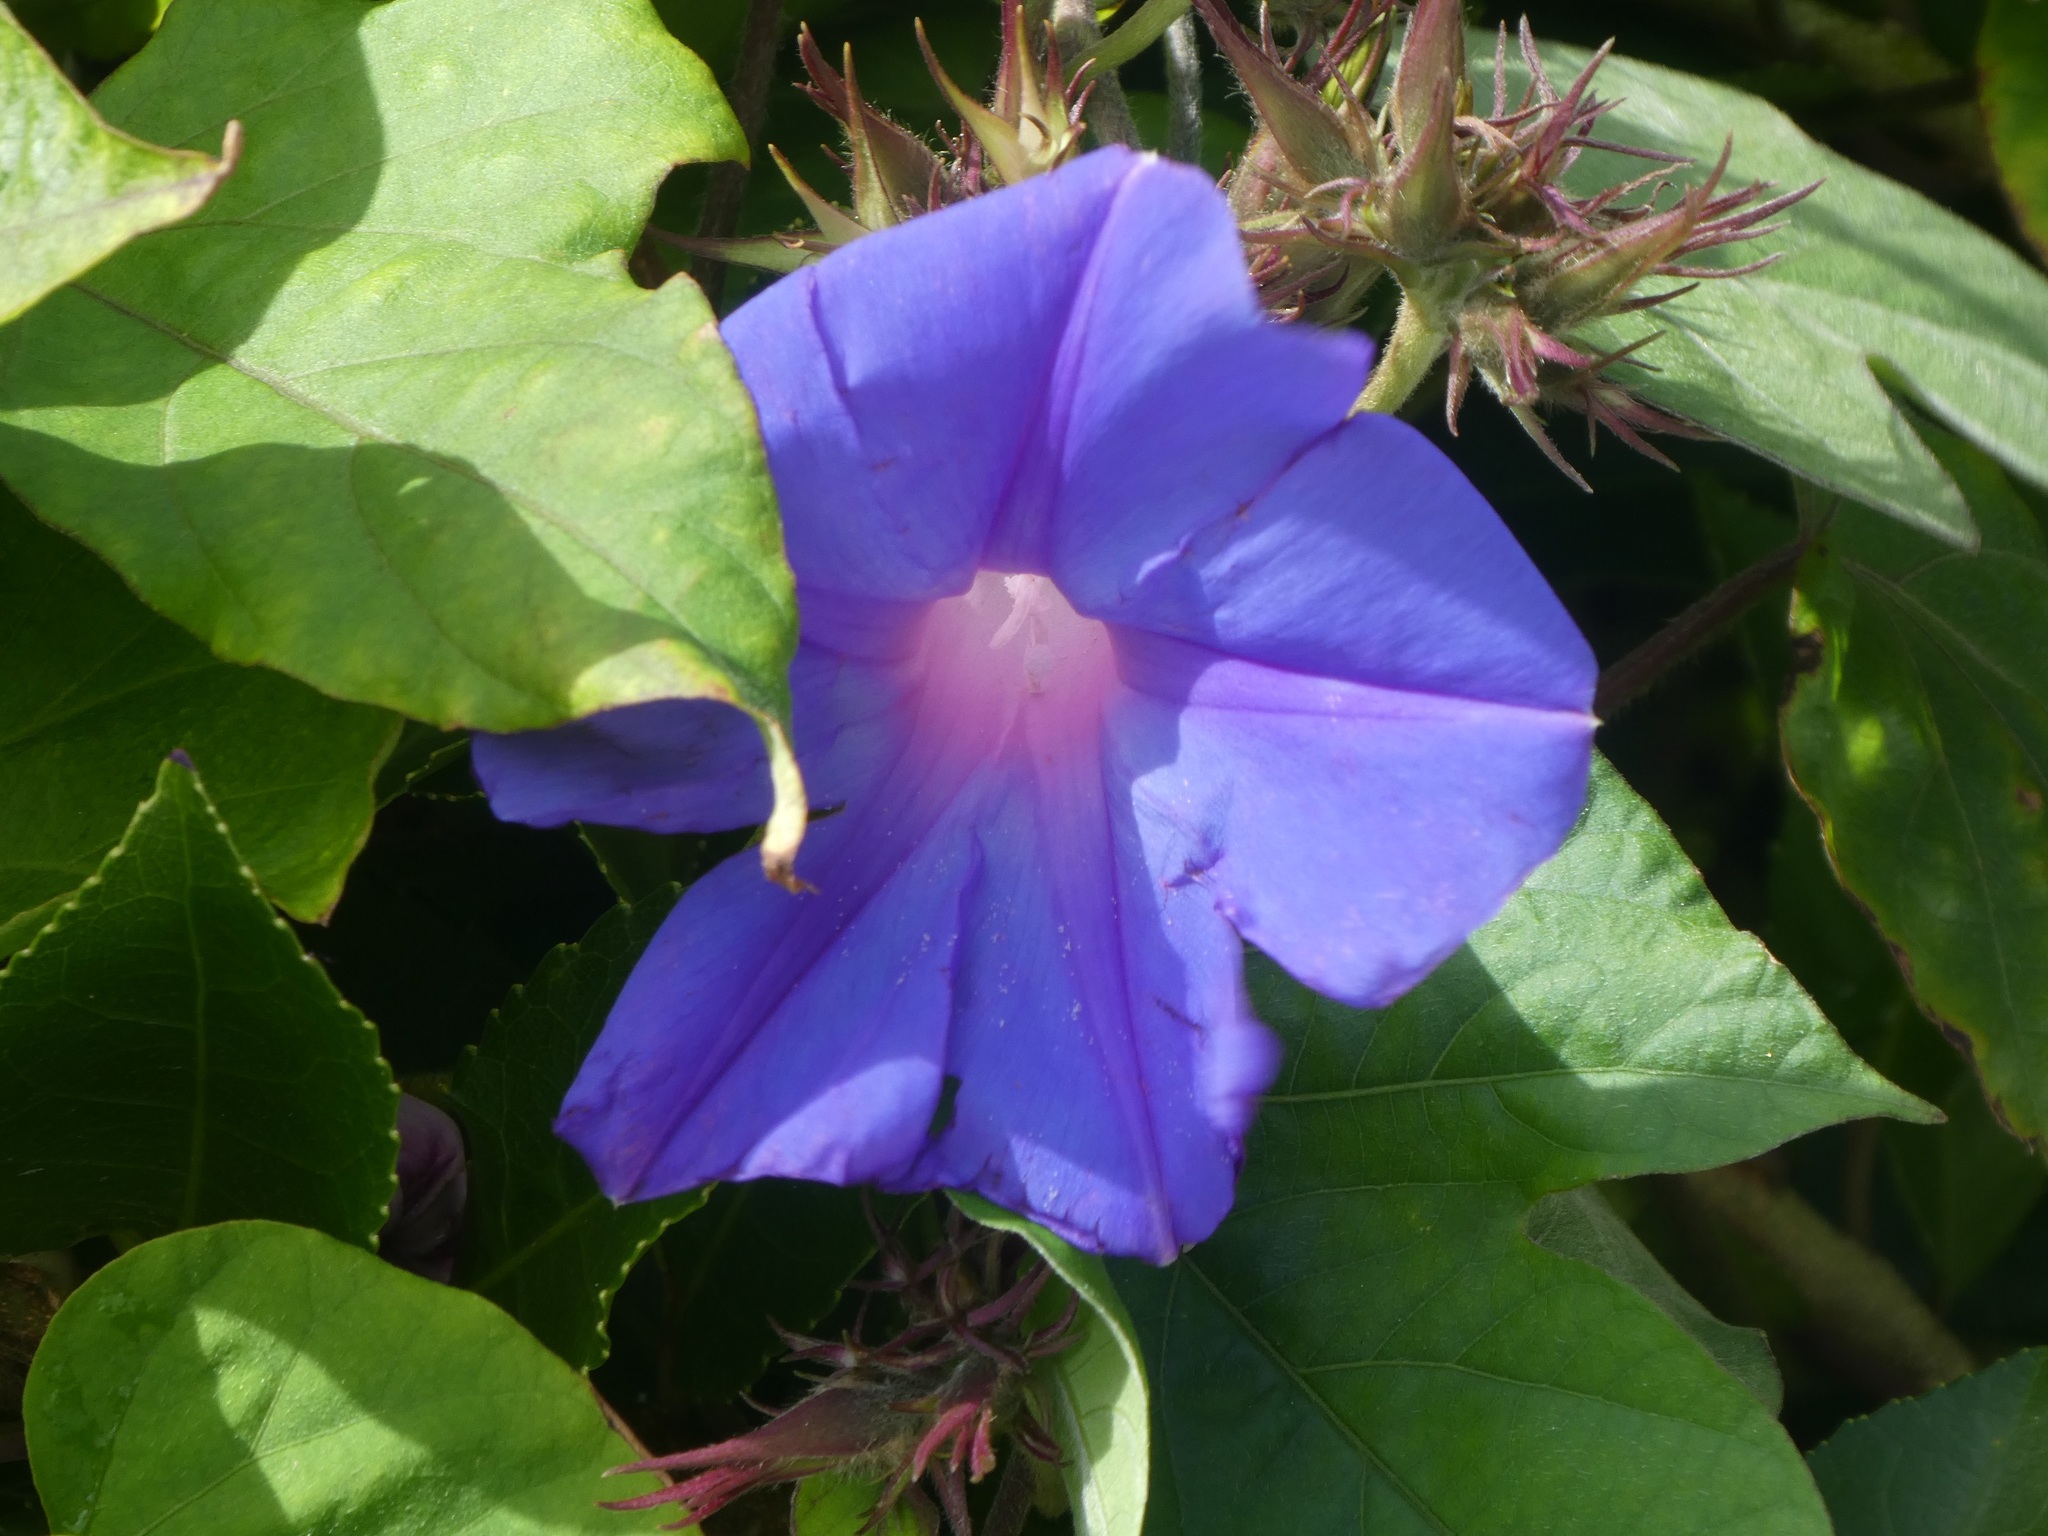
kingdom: Plantae
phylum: Tracheophyta
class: Magnoliopsida
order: Solanales
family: Convolvulaceae
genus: Ipomoea
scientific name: Ipomoea indica
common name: Blue dawnflower
